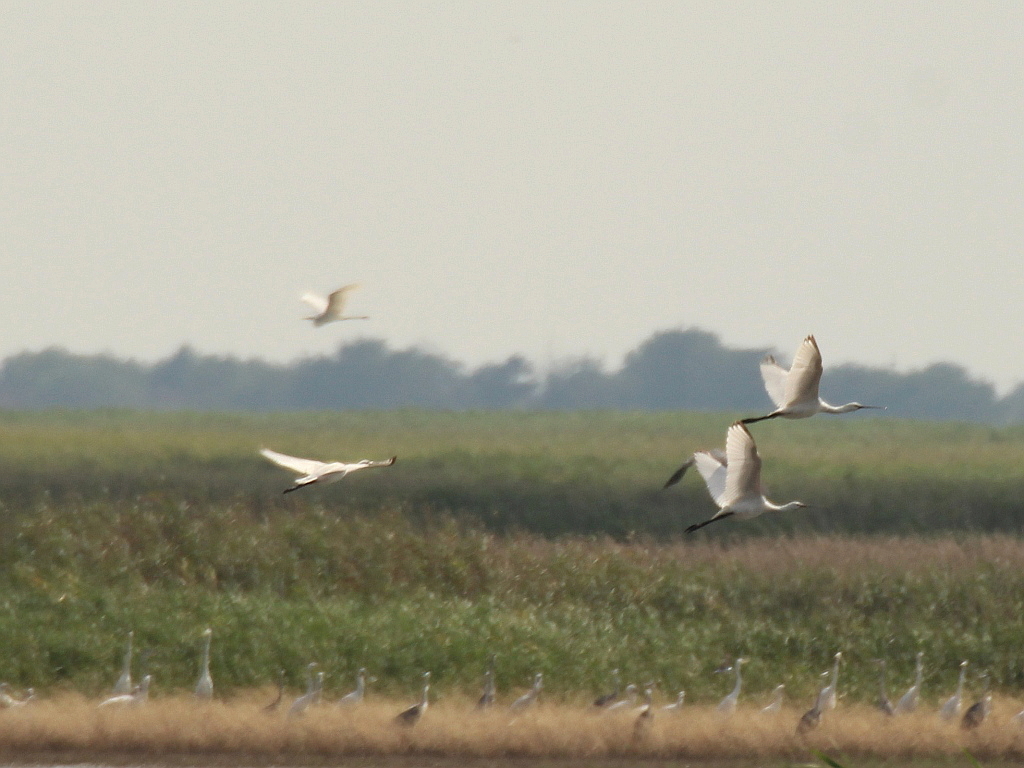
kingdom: Animalia
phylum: Chordata
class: Aves
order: Pelecaniformes
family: Threskiornithidae
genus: Platalea
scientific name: Platalea leucorodia
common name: Eurasian spoonbill
